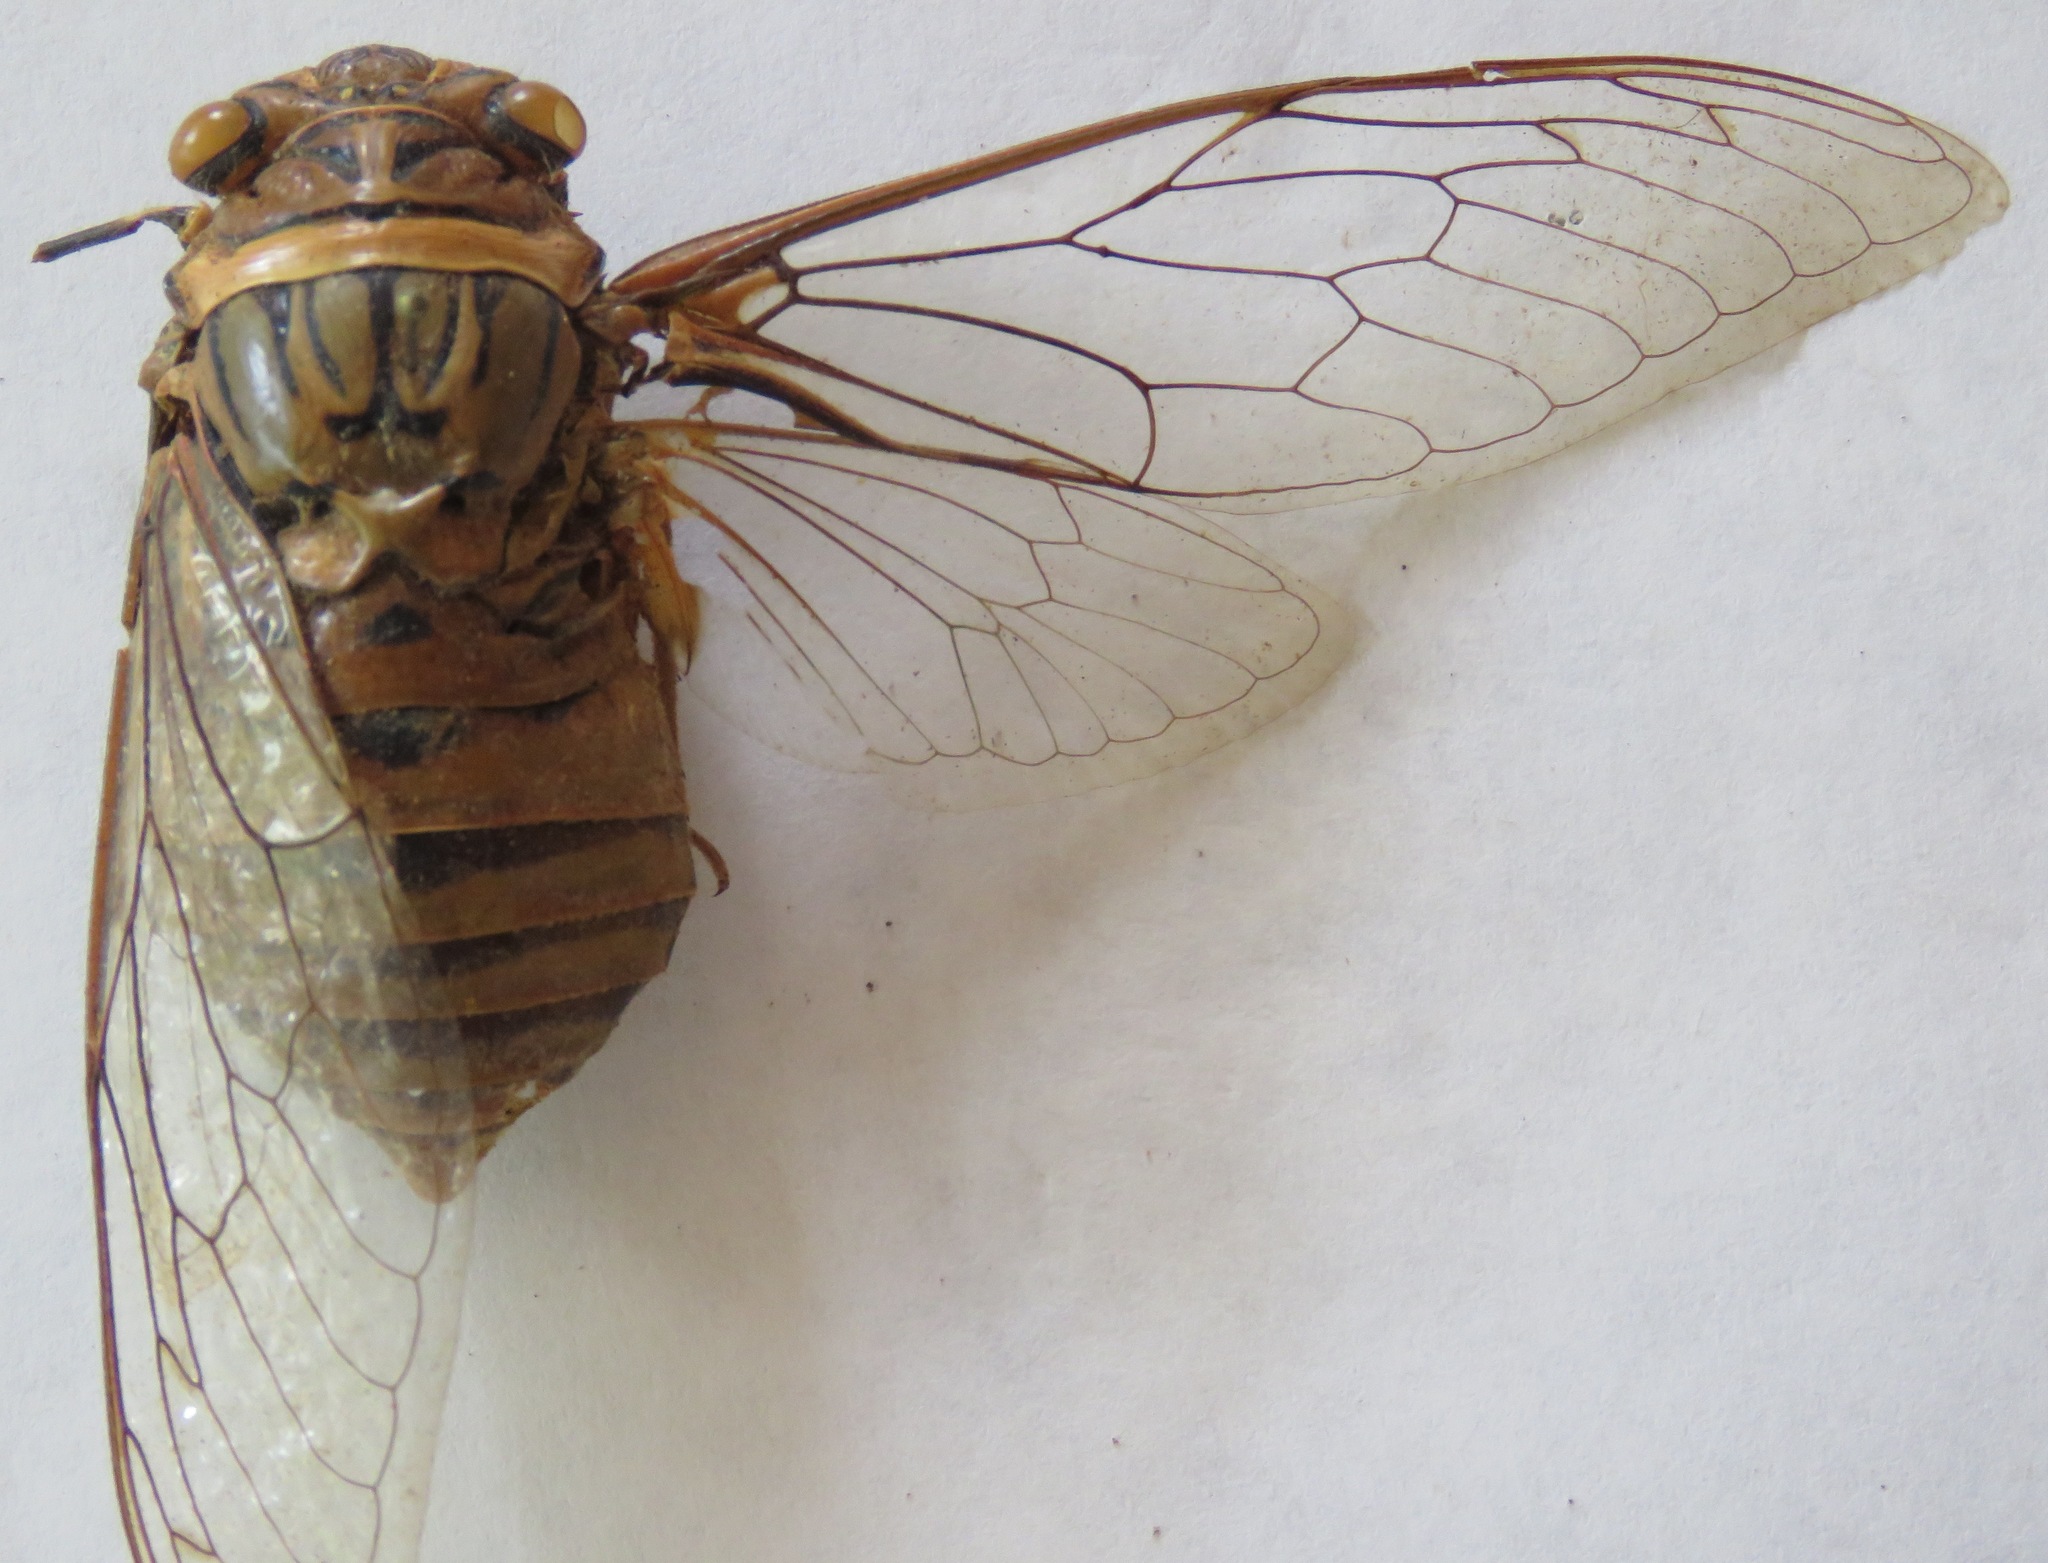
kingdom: Animalia
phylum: Arthropoda
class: Insecta
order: Hemiptera
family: Cicadidae
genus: Quesada
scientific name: Quesada gigas
